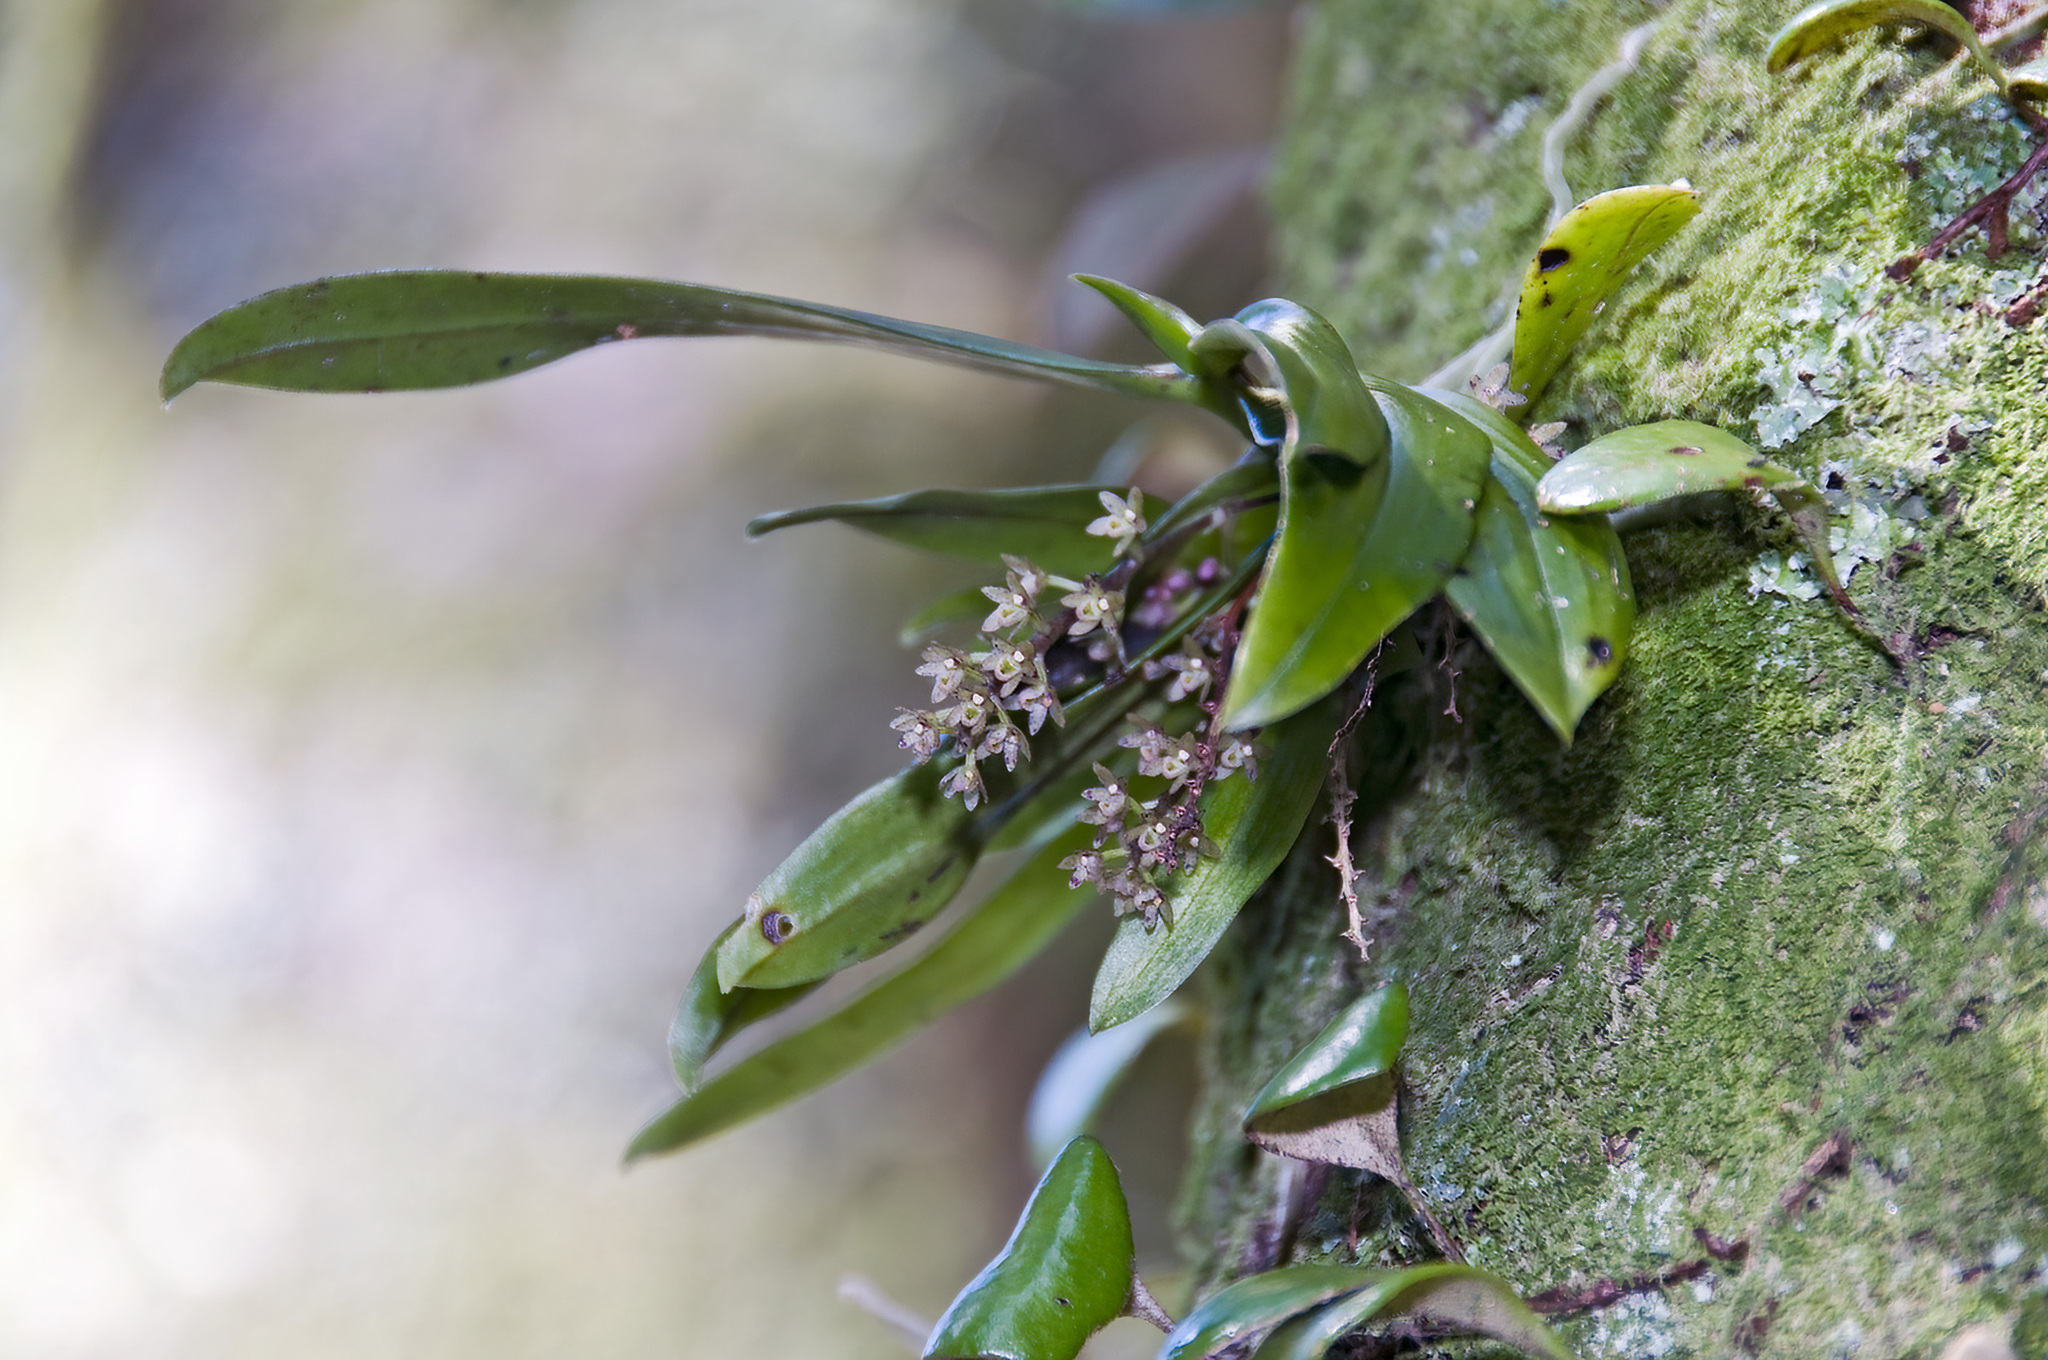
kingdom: Plantae
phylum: Tracheophyta
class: Liliopsida
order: Asparagales
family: Orchidaceae
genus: Drymoanthus
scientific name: Drymoanthus adversus
